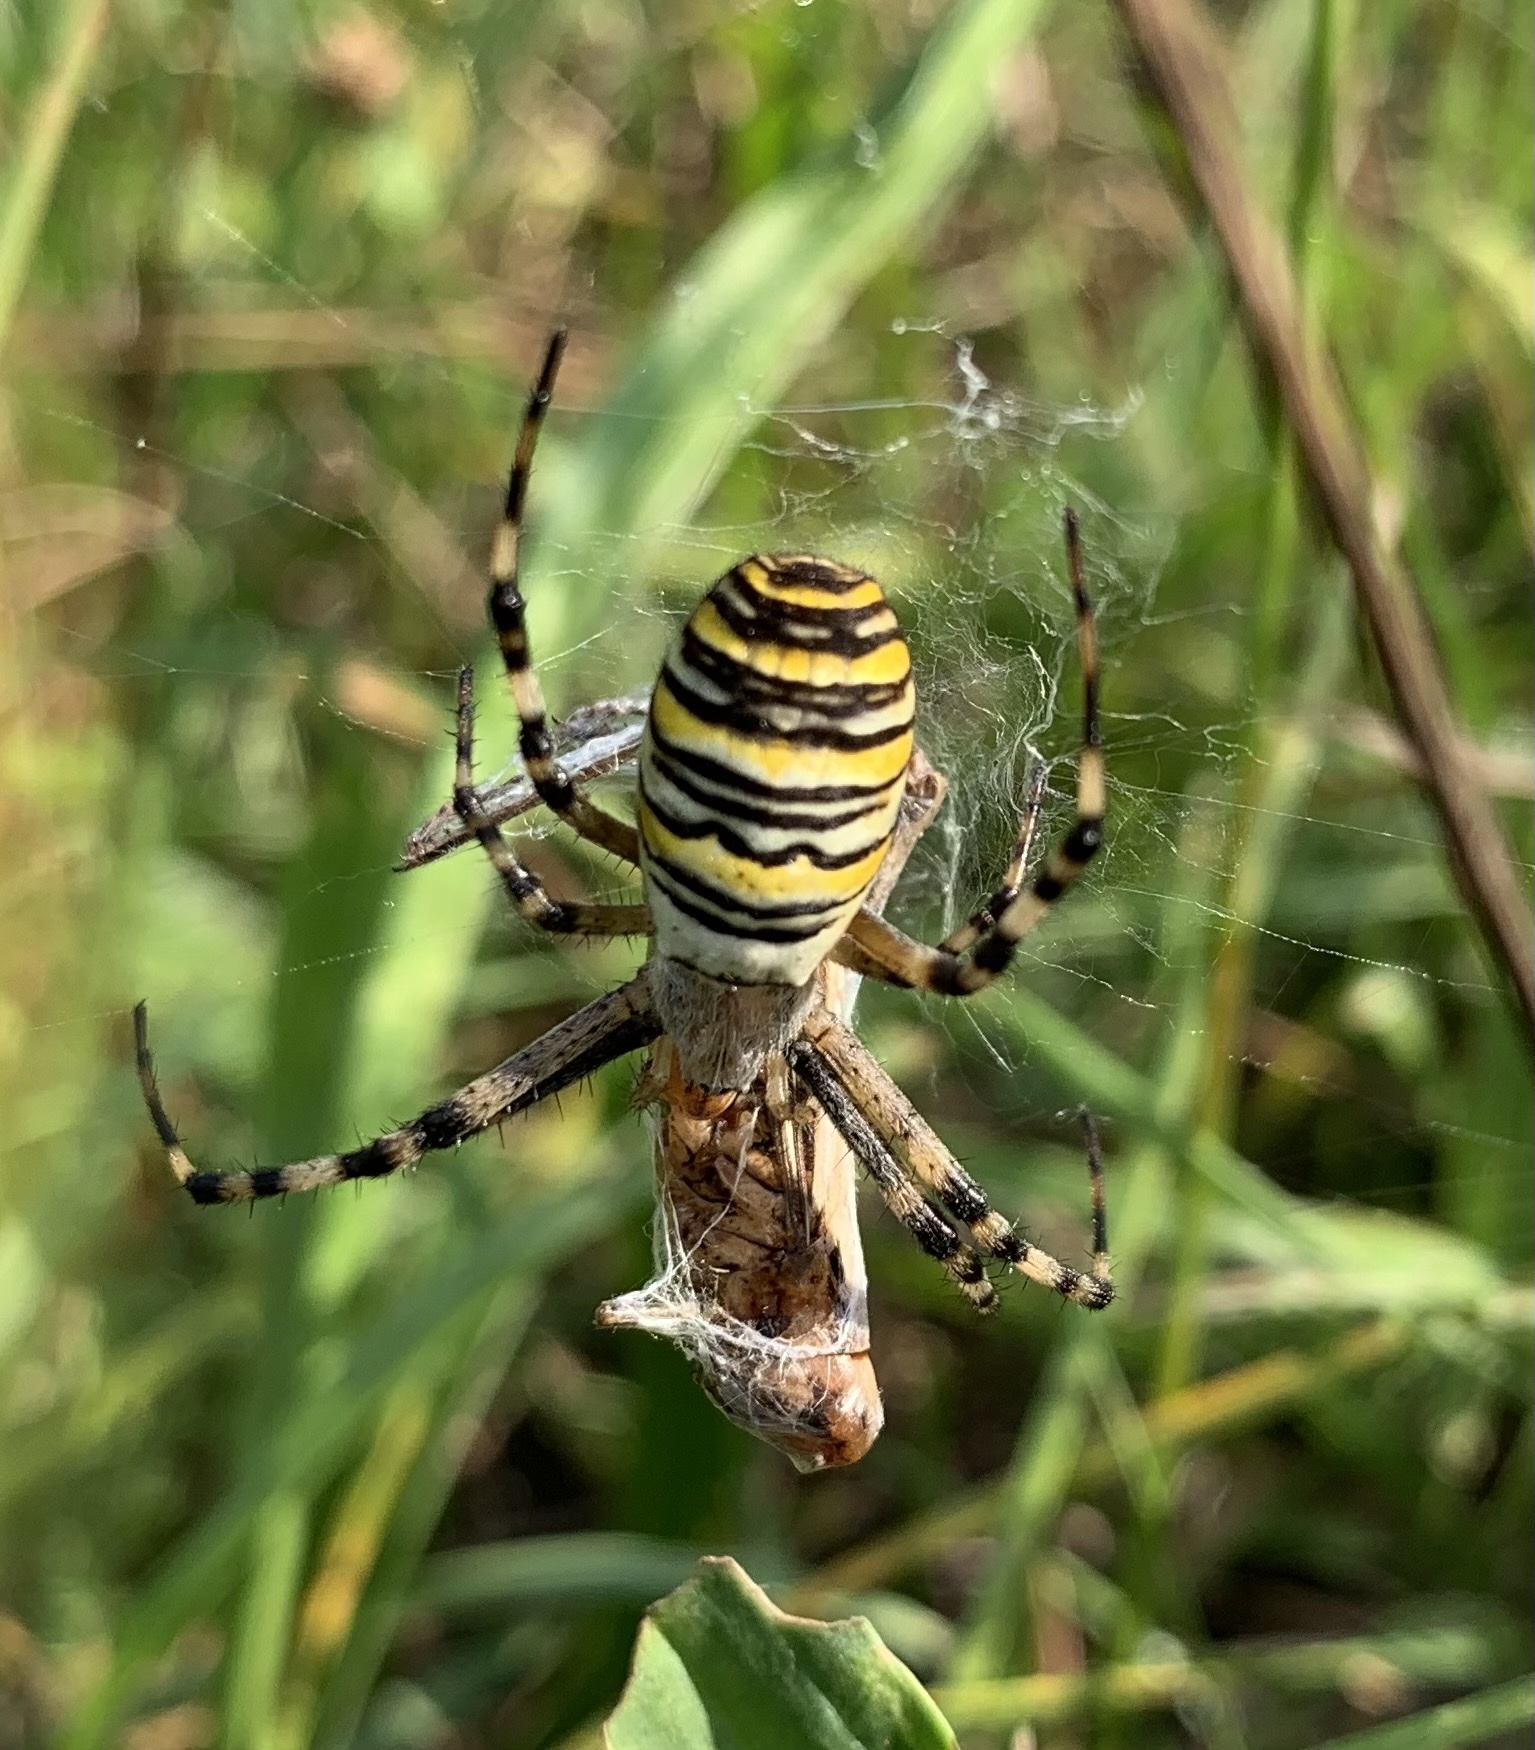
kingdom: Animalia
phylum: Arthropoda
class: Arachnida
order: Araneae
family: Araneidae
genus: Argiope
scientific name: Argiope bruennichi
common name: Wasp spider
